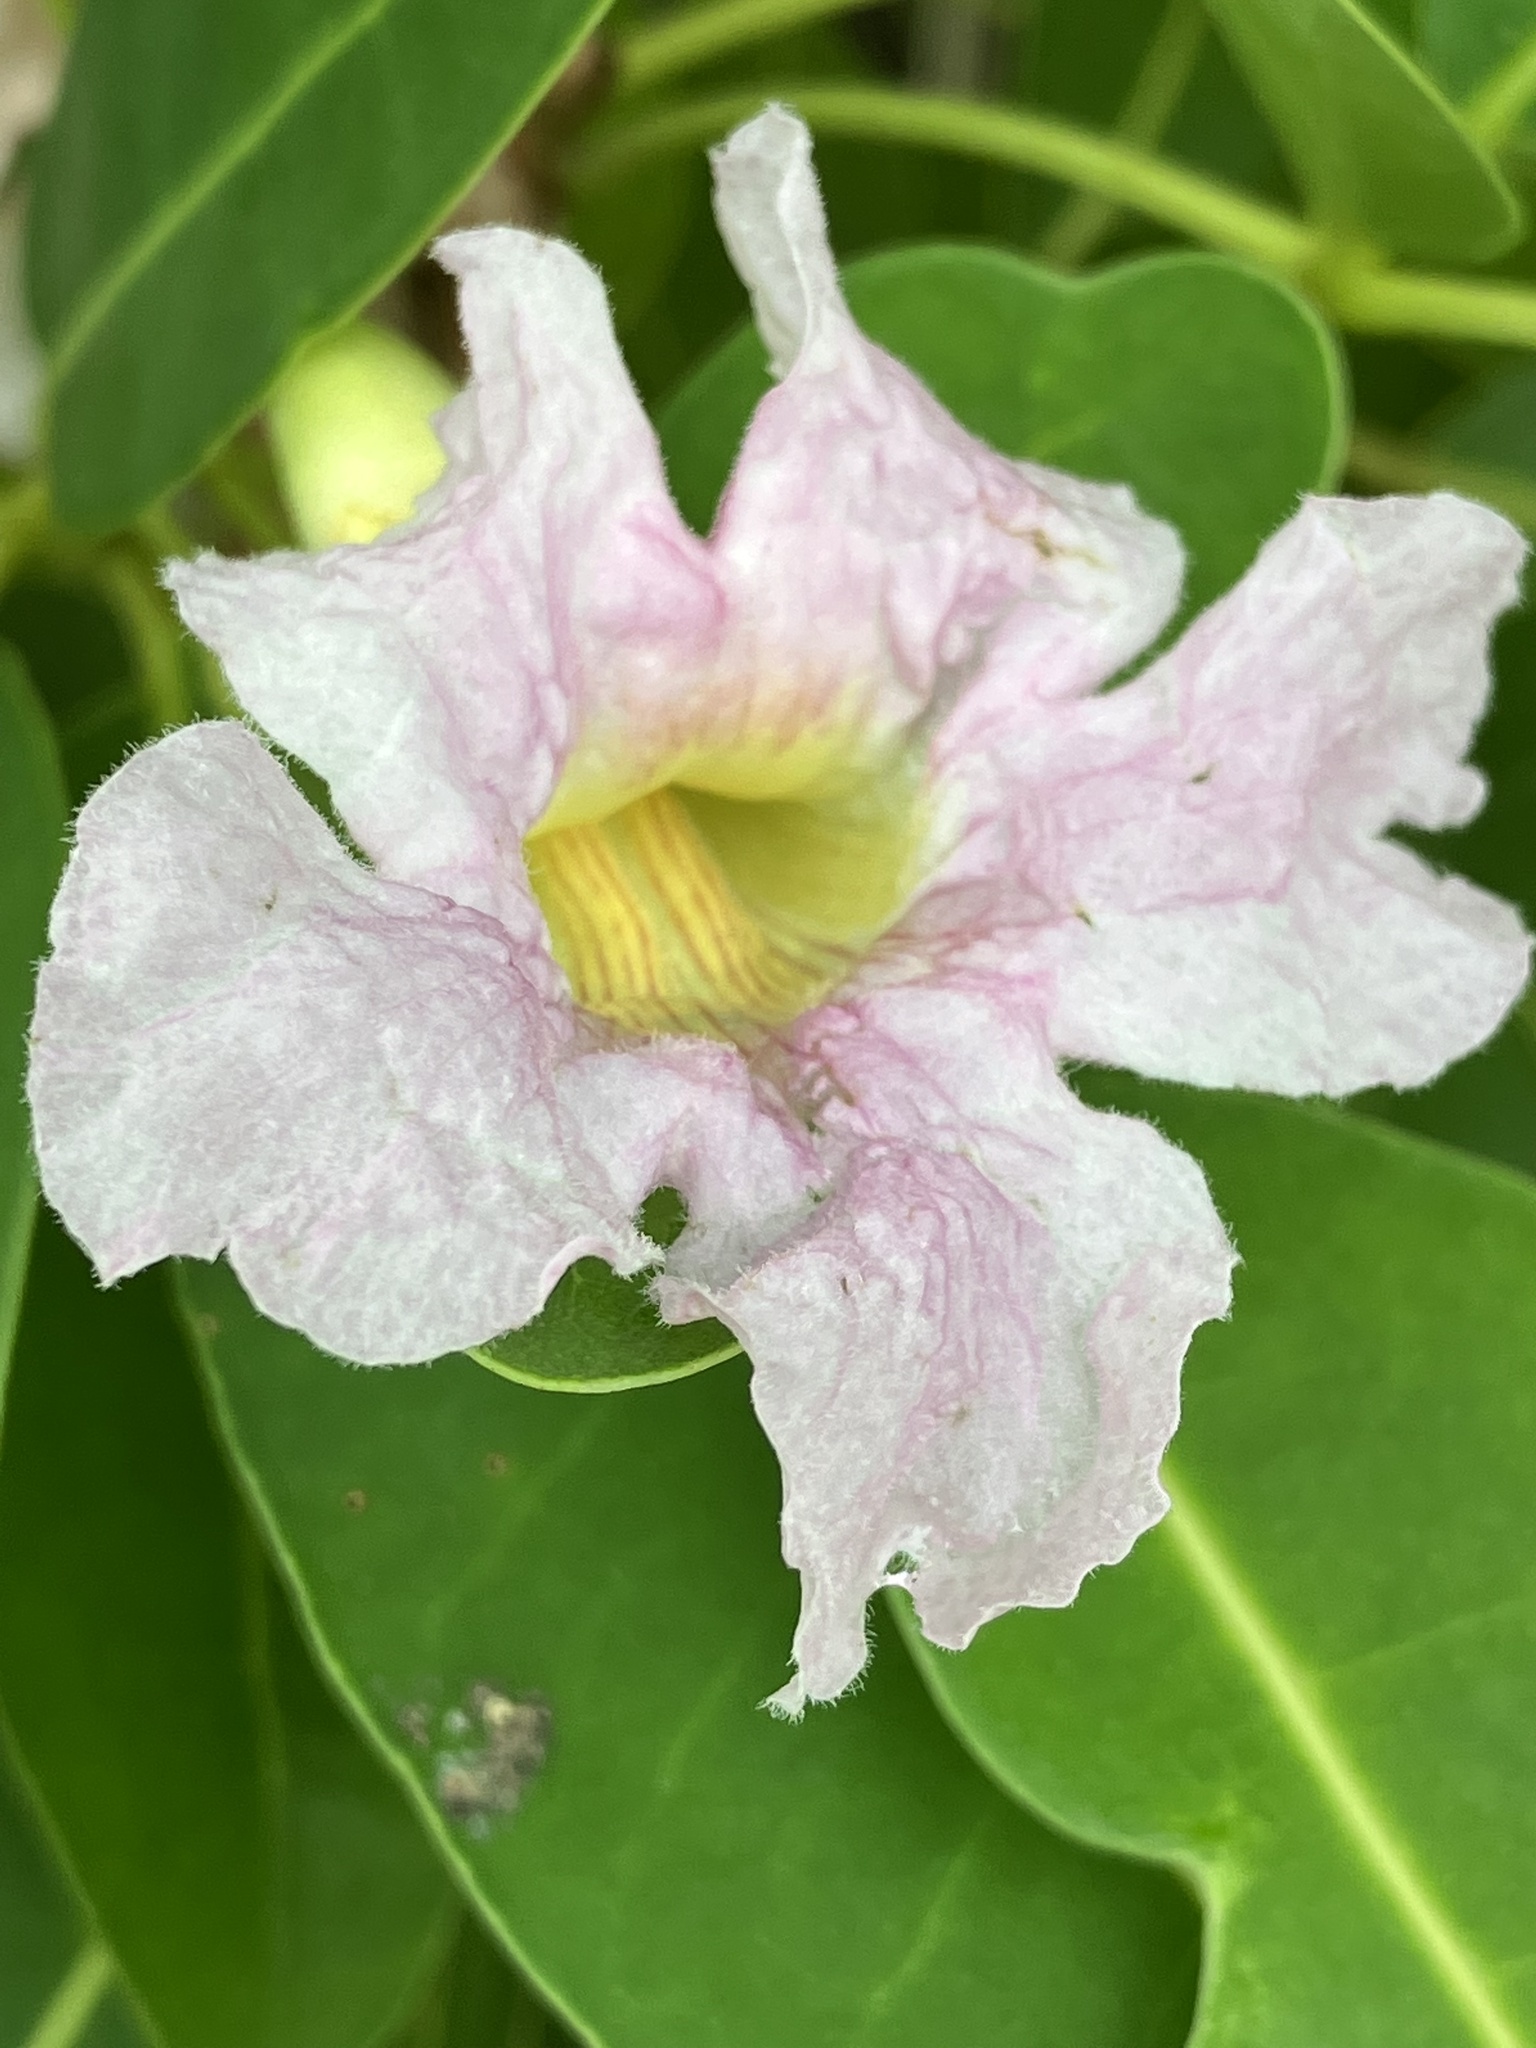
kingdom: Plantae
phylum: Tracheophyta
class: Magnoliopsida
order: Lamiales
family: Bignoniaceae
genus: Tabebuia
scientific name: Tabebuia heterophylla
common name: White cedar
